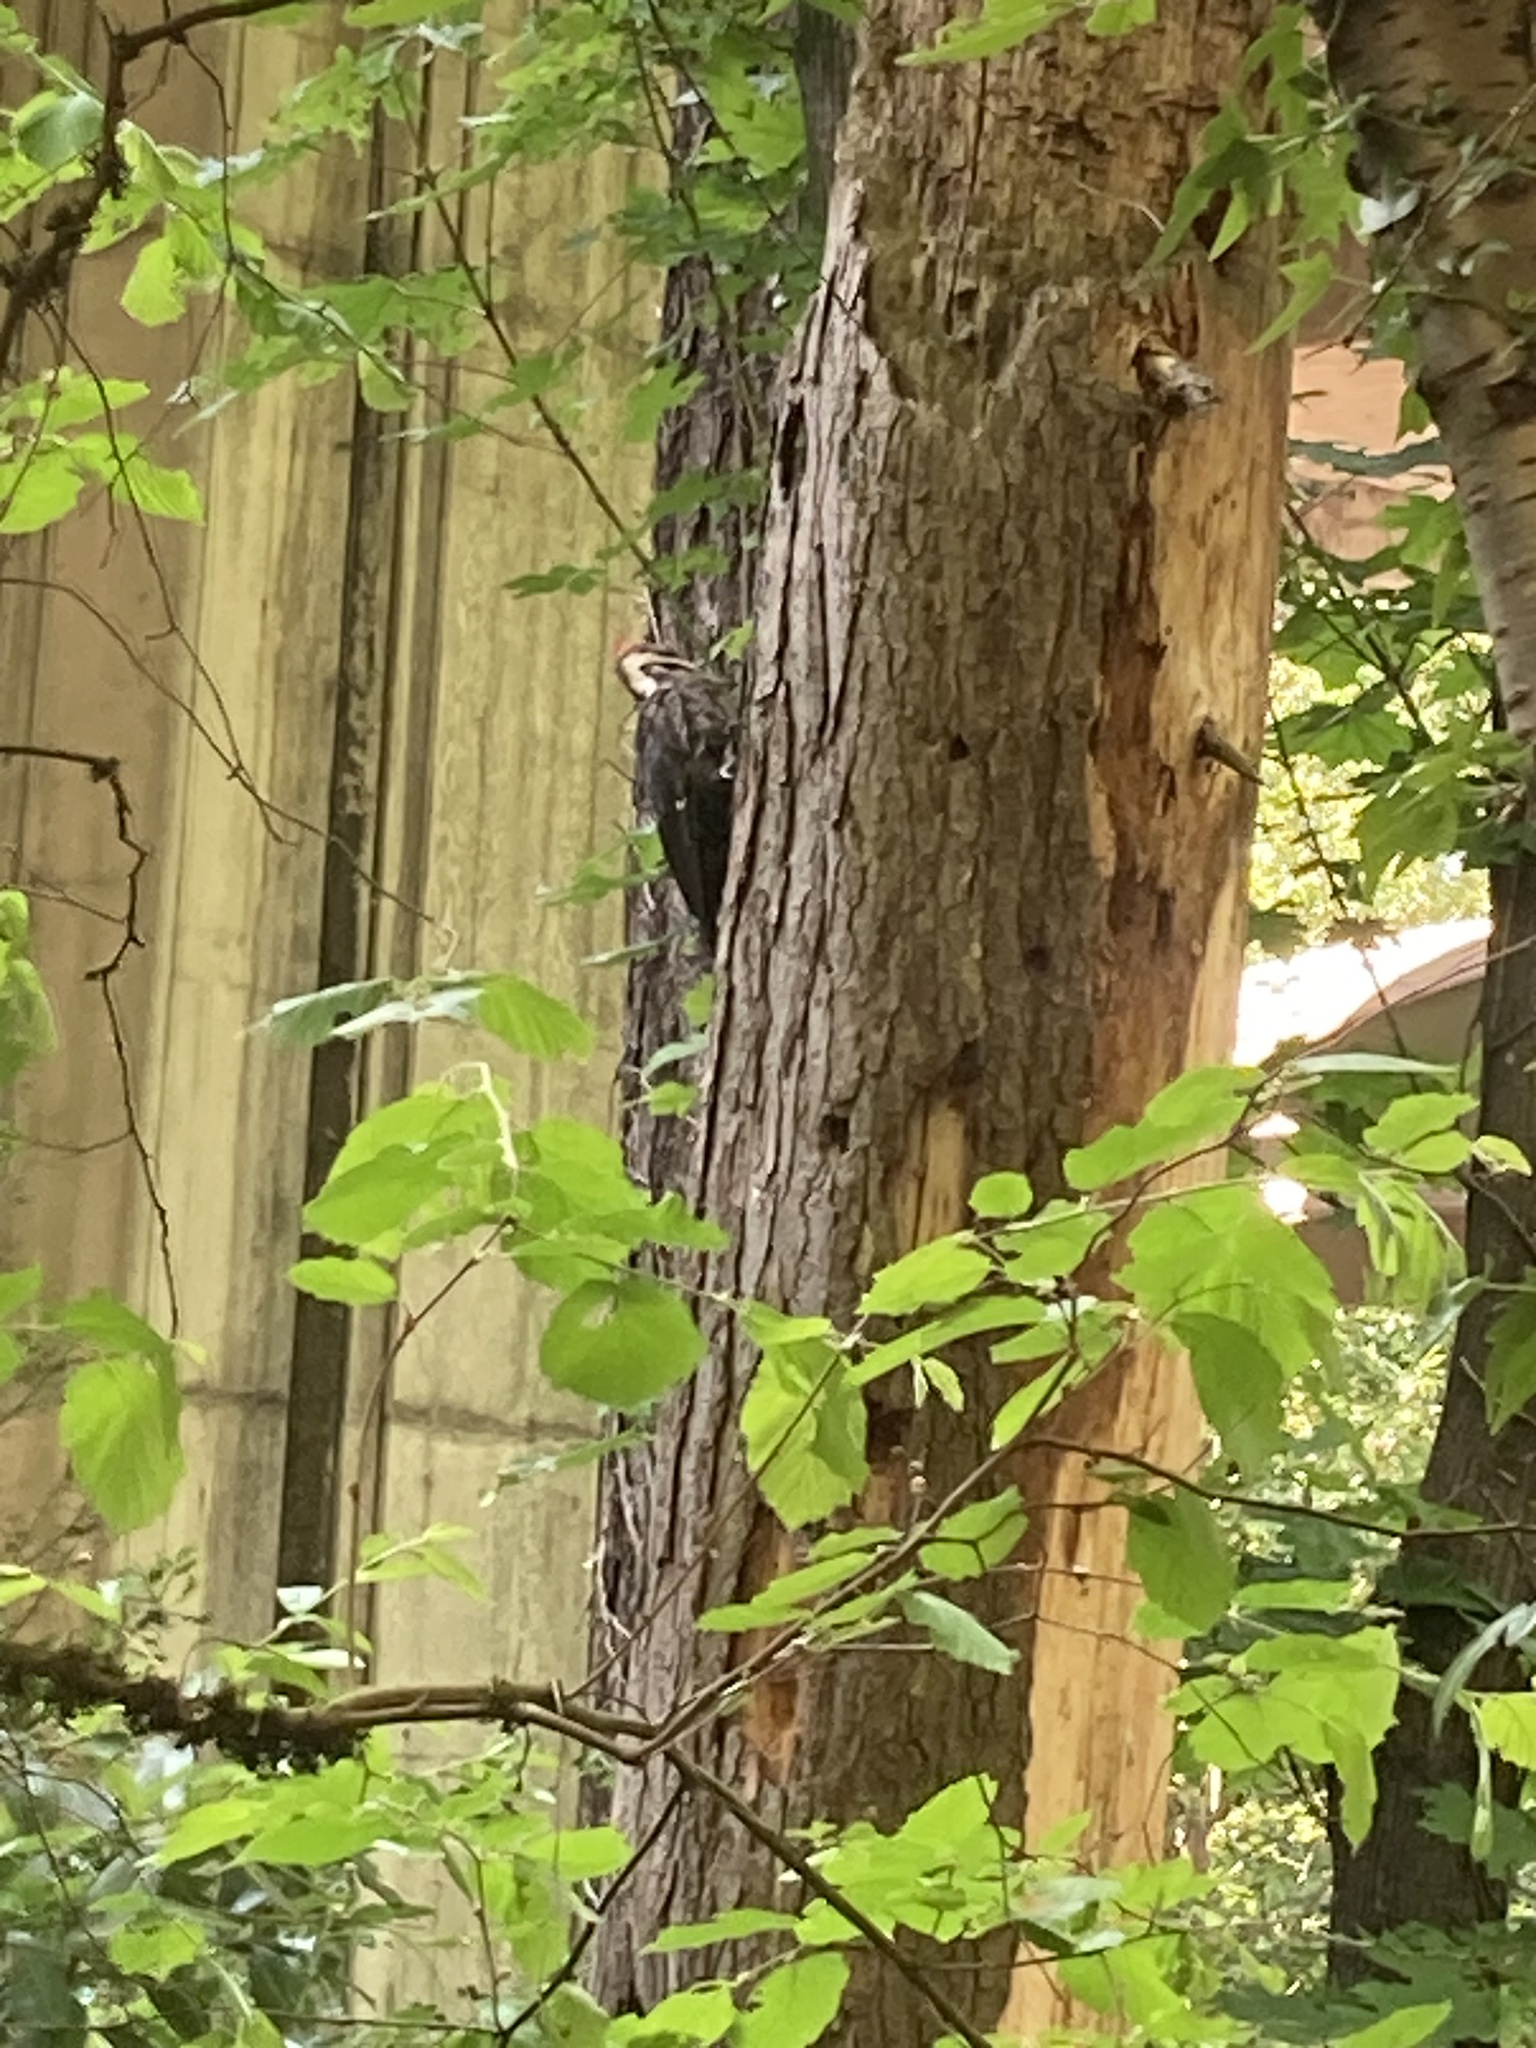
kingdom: Animalia
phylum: Chordata
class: Aves
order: Piciformes
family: Picidae
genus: Dryocopus
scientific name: Dryocopus pileatus
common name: Pileated woodpecker
